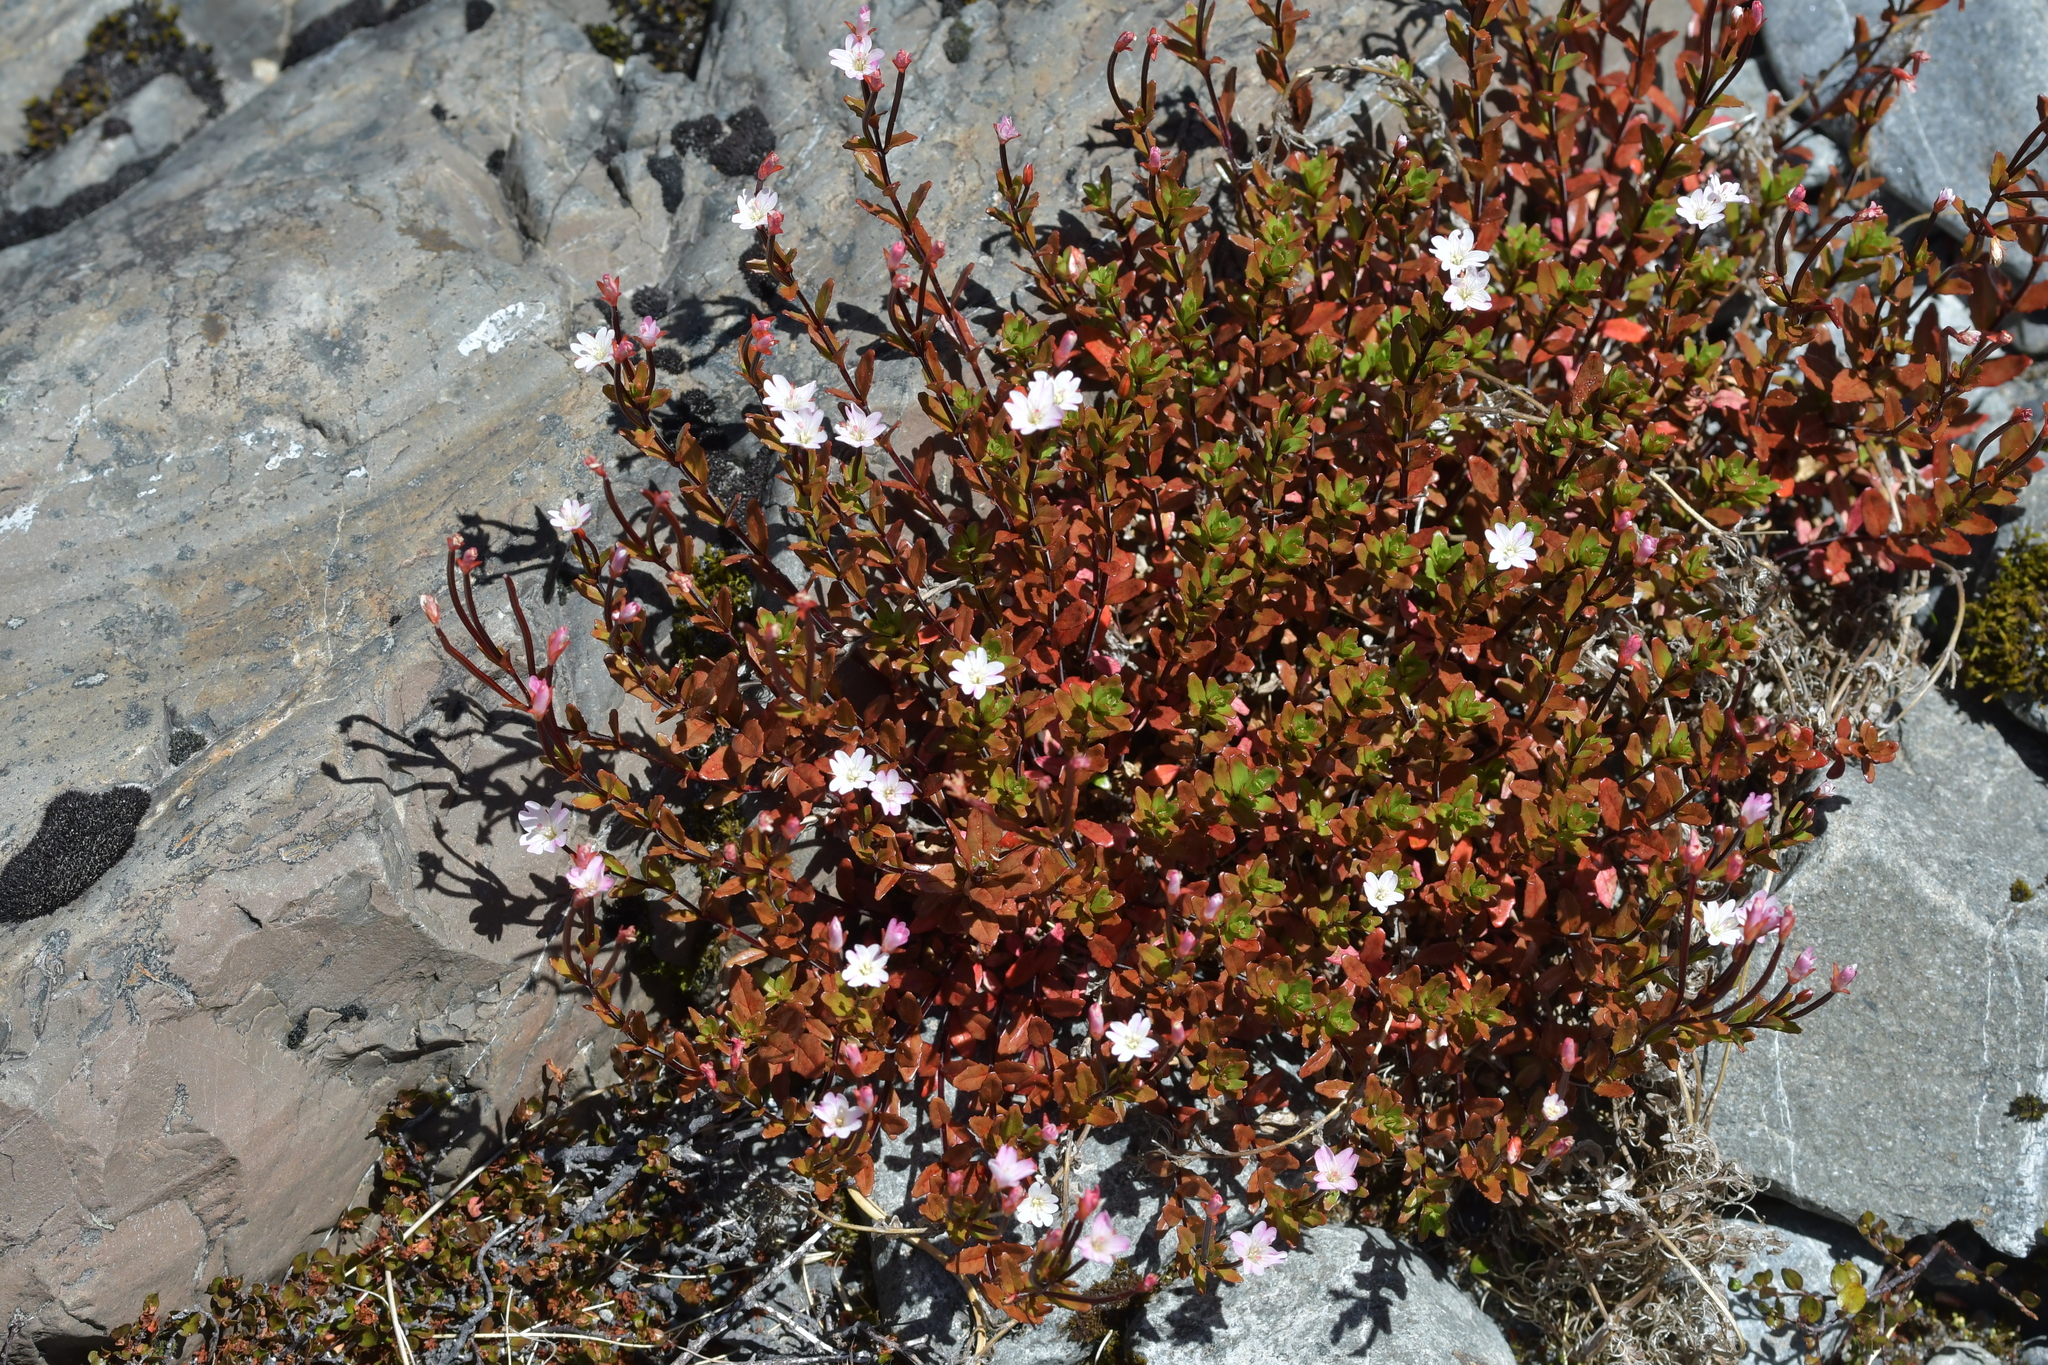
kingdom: Plantae
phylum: Tracheophyta
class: Magnoliopsida
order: Myrtales
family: Onagraceae
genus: Epilobium
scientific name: Epilobium glabellum
